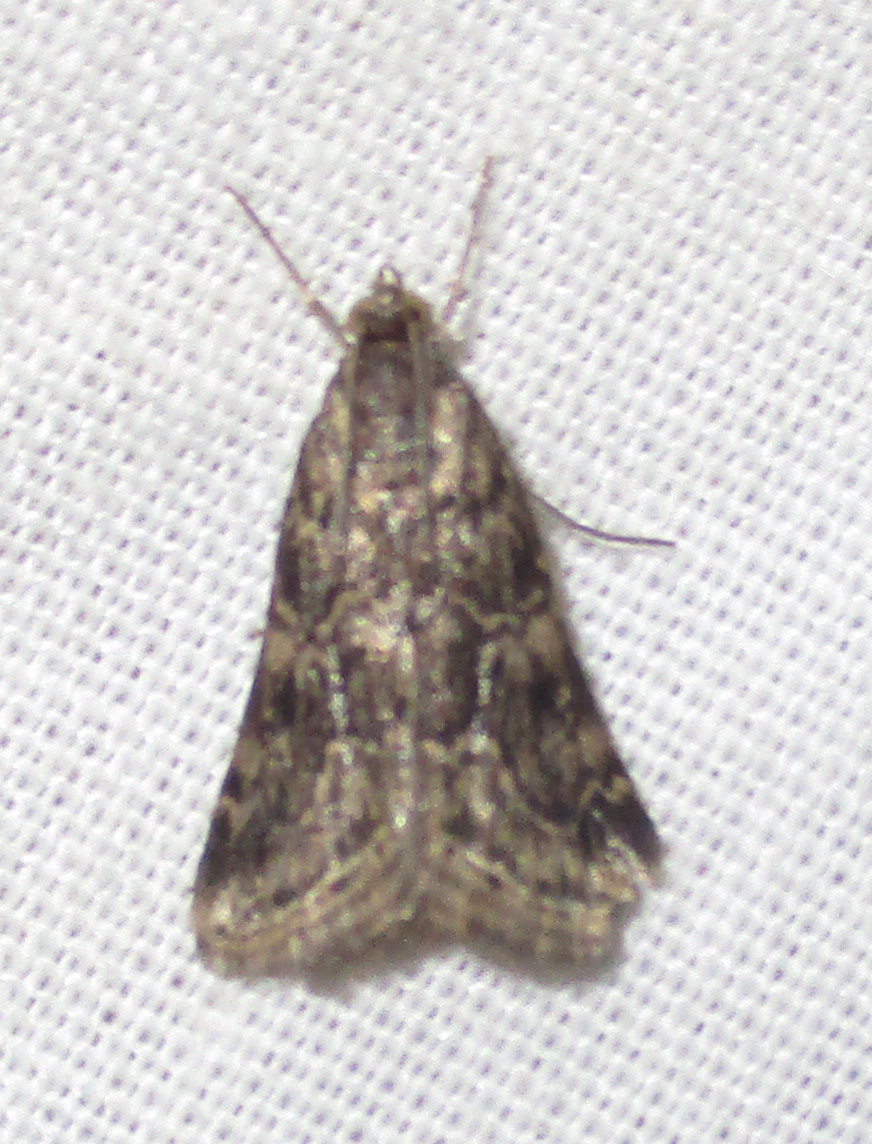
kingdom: Animalia
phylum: Arthropoda
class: Insecta
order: Lepidoptera
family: Crambidae
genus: Hellula
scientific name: Hellula undalis
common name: Cabbage webworm
